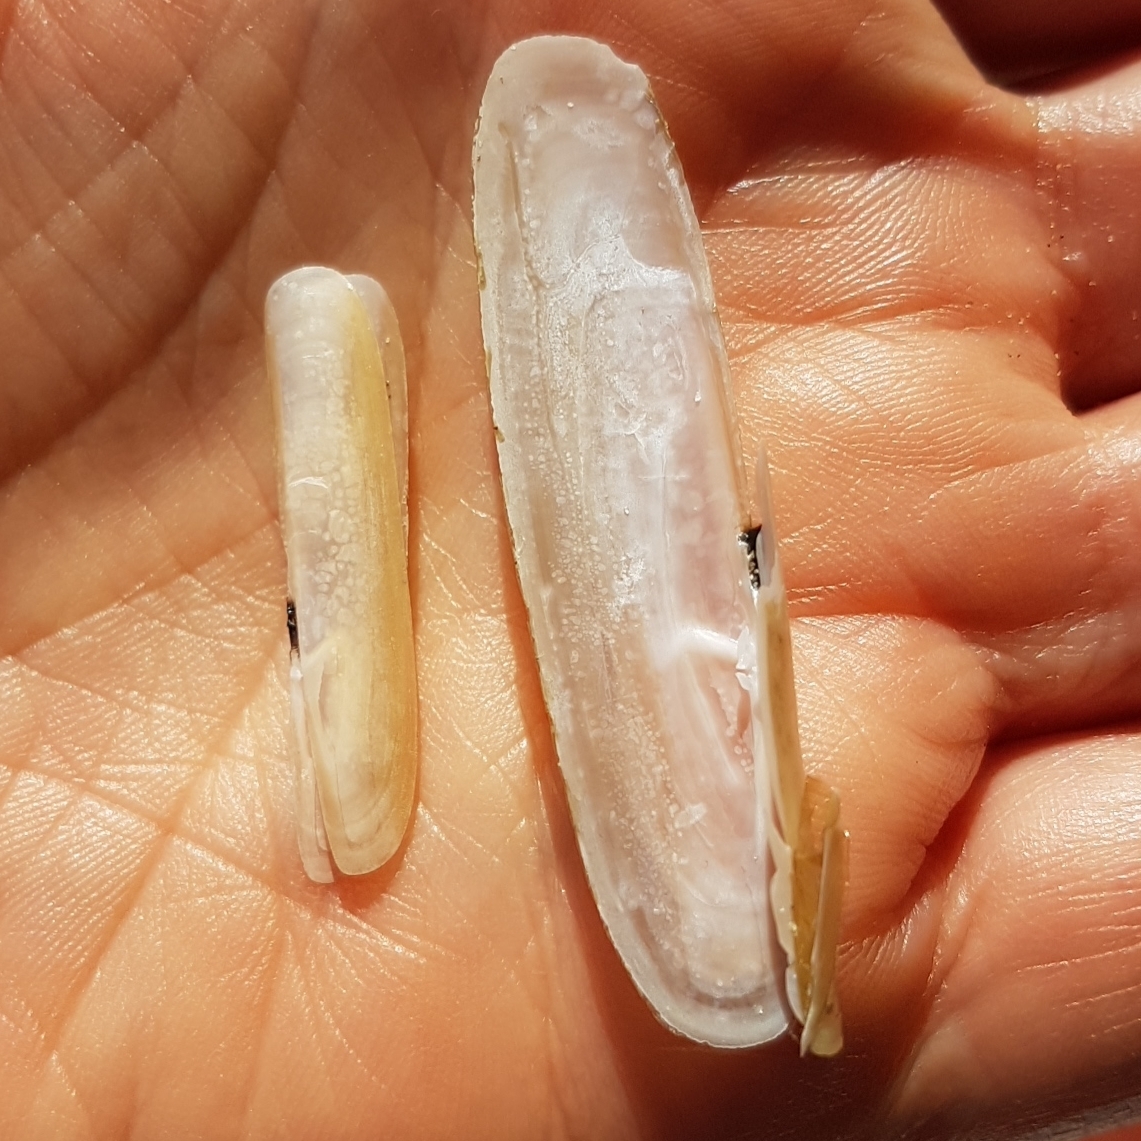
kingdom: Animalia
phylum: Mollusca
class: Bivalvia
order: Adapedonta
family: Pharidae
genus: Pharus
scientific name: Pharus legumen
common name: Bean razor clam
